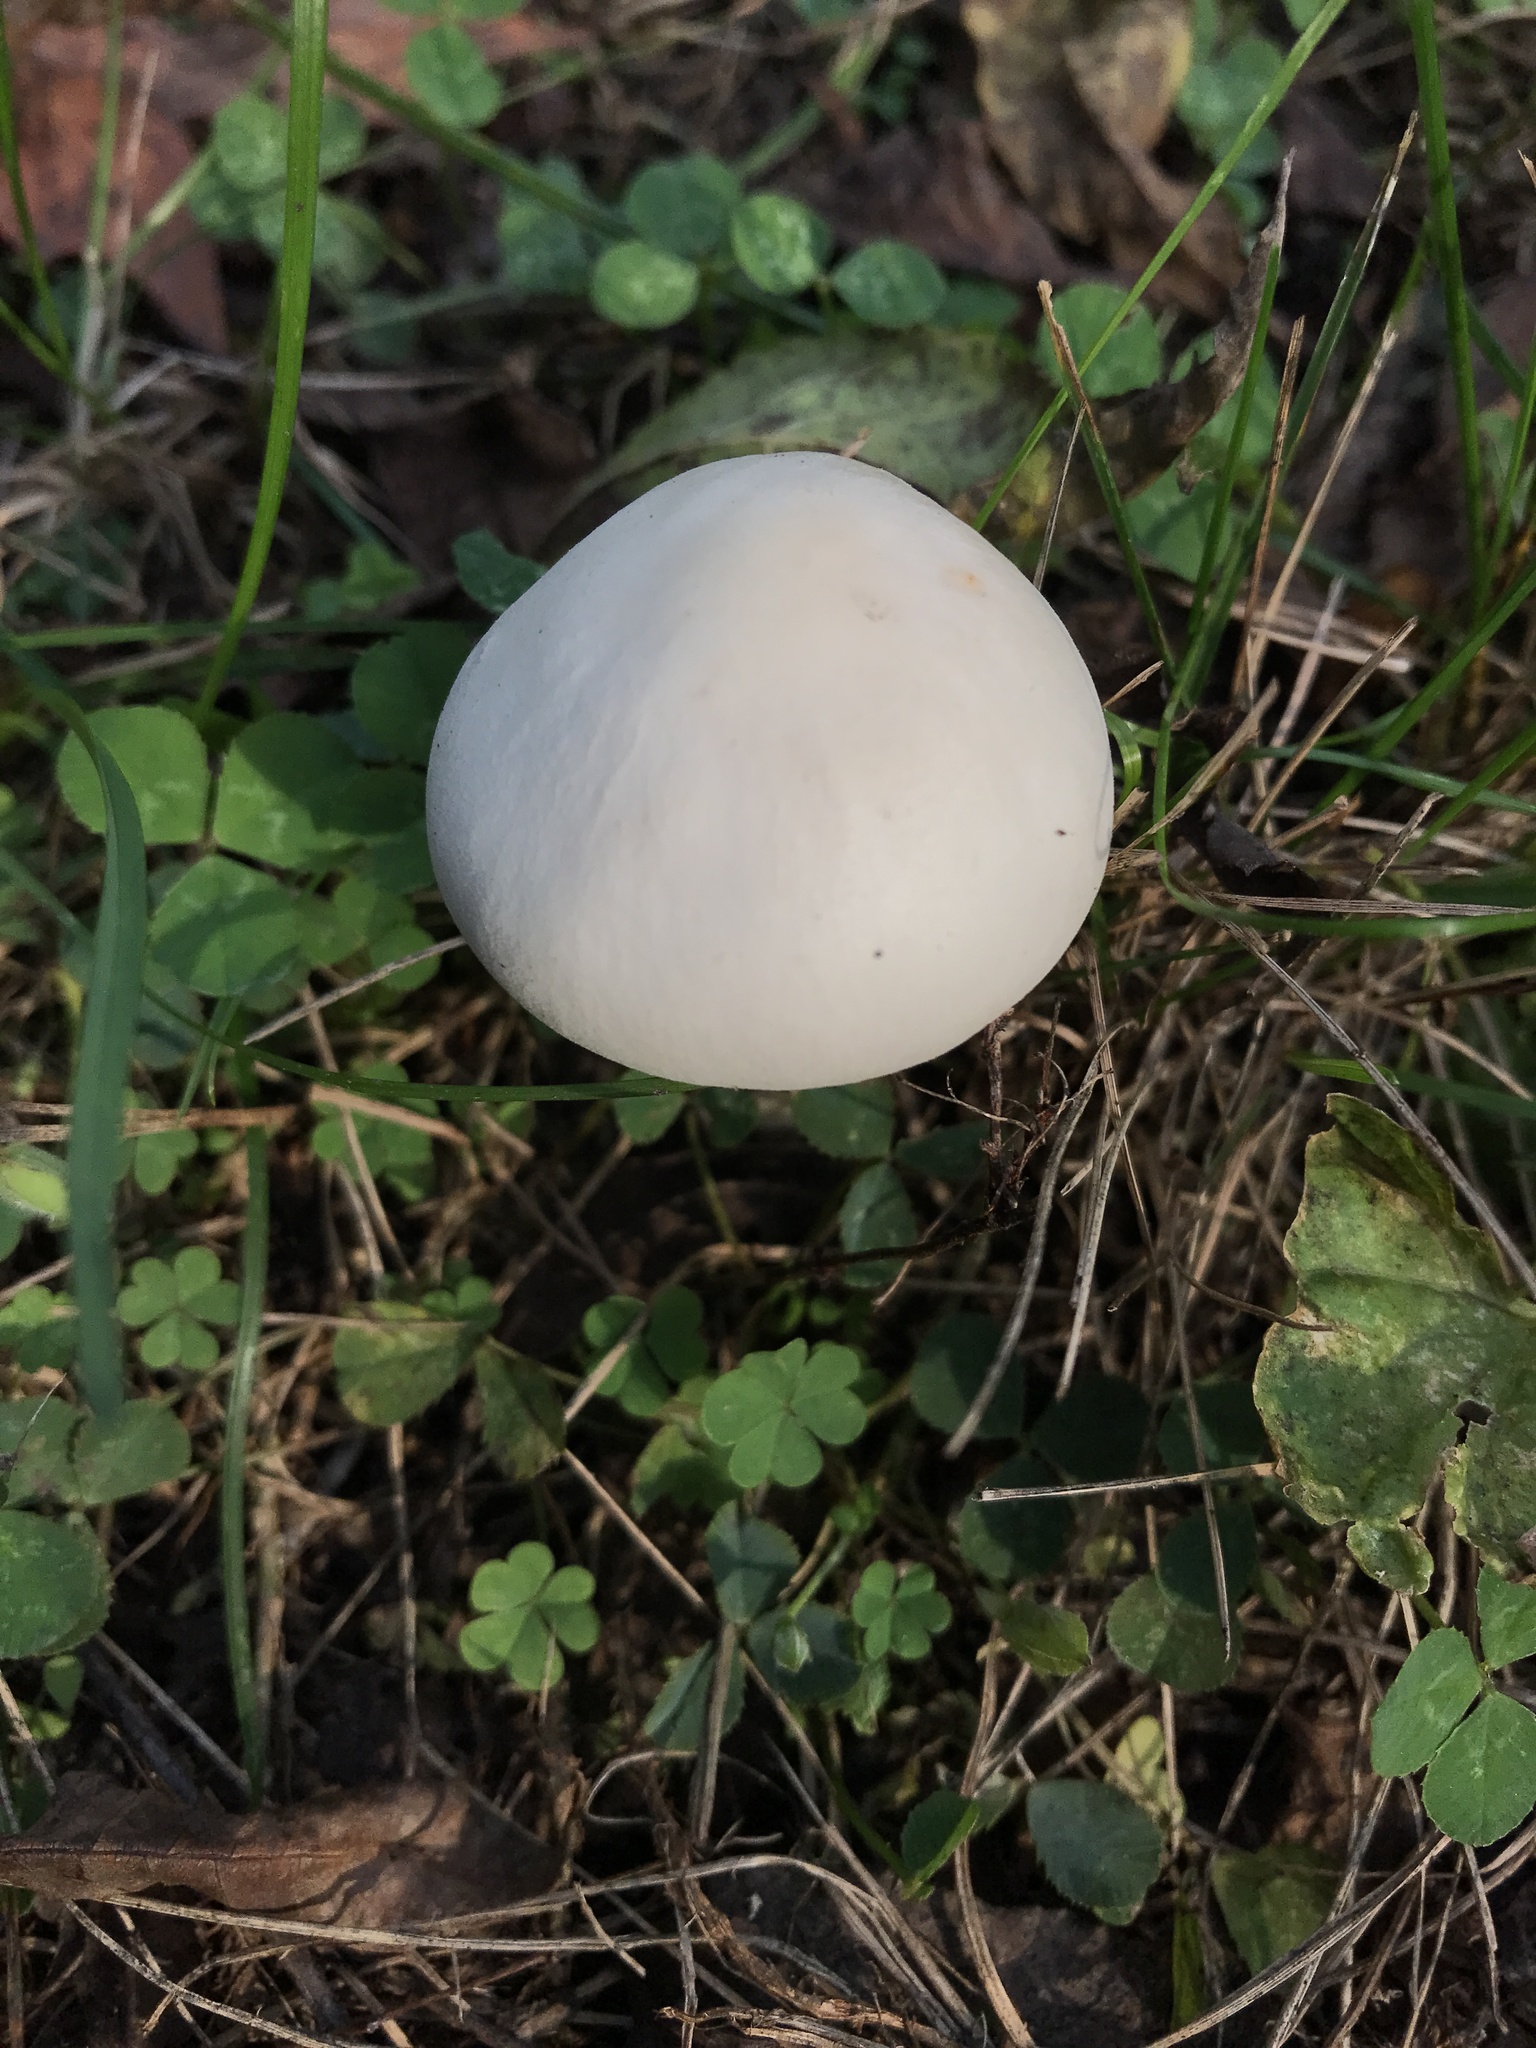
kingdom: Fungi
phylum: Basidiomycota
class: Agaricomycetes
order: Agaricales
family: Agaricaceae
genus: Leucoagaricus
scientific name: Leucoagaricus leucothites
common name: White dapperling
